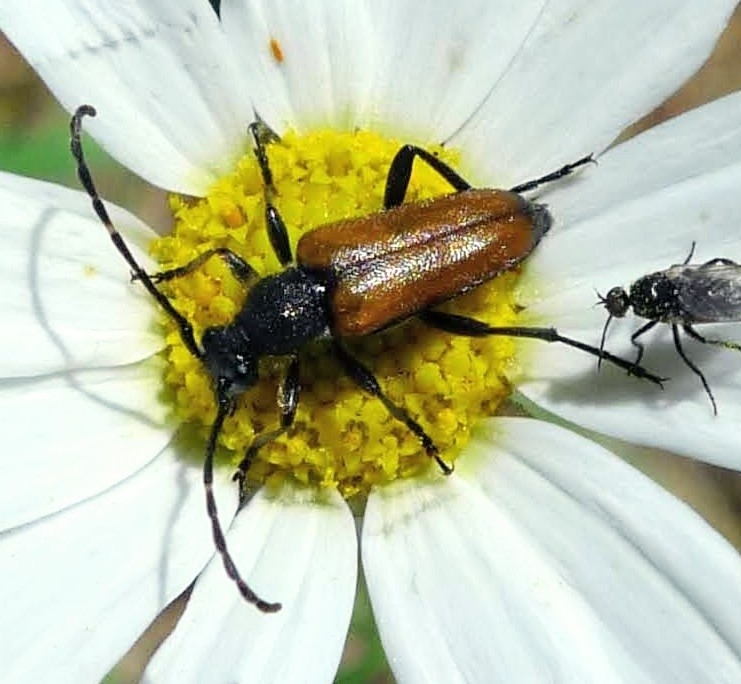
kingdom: Animalia
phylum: Arthropoda
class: Insecta
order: Coleoptera
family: Cerambycidae
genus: Paracorymbia
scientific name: Paracorymbia maculicornis
